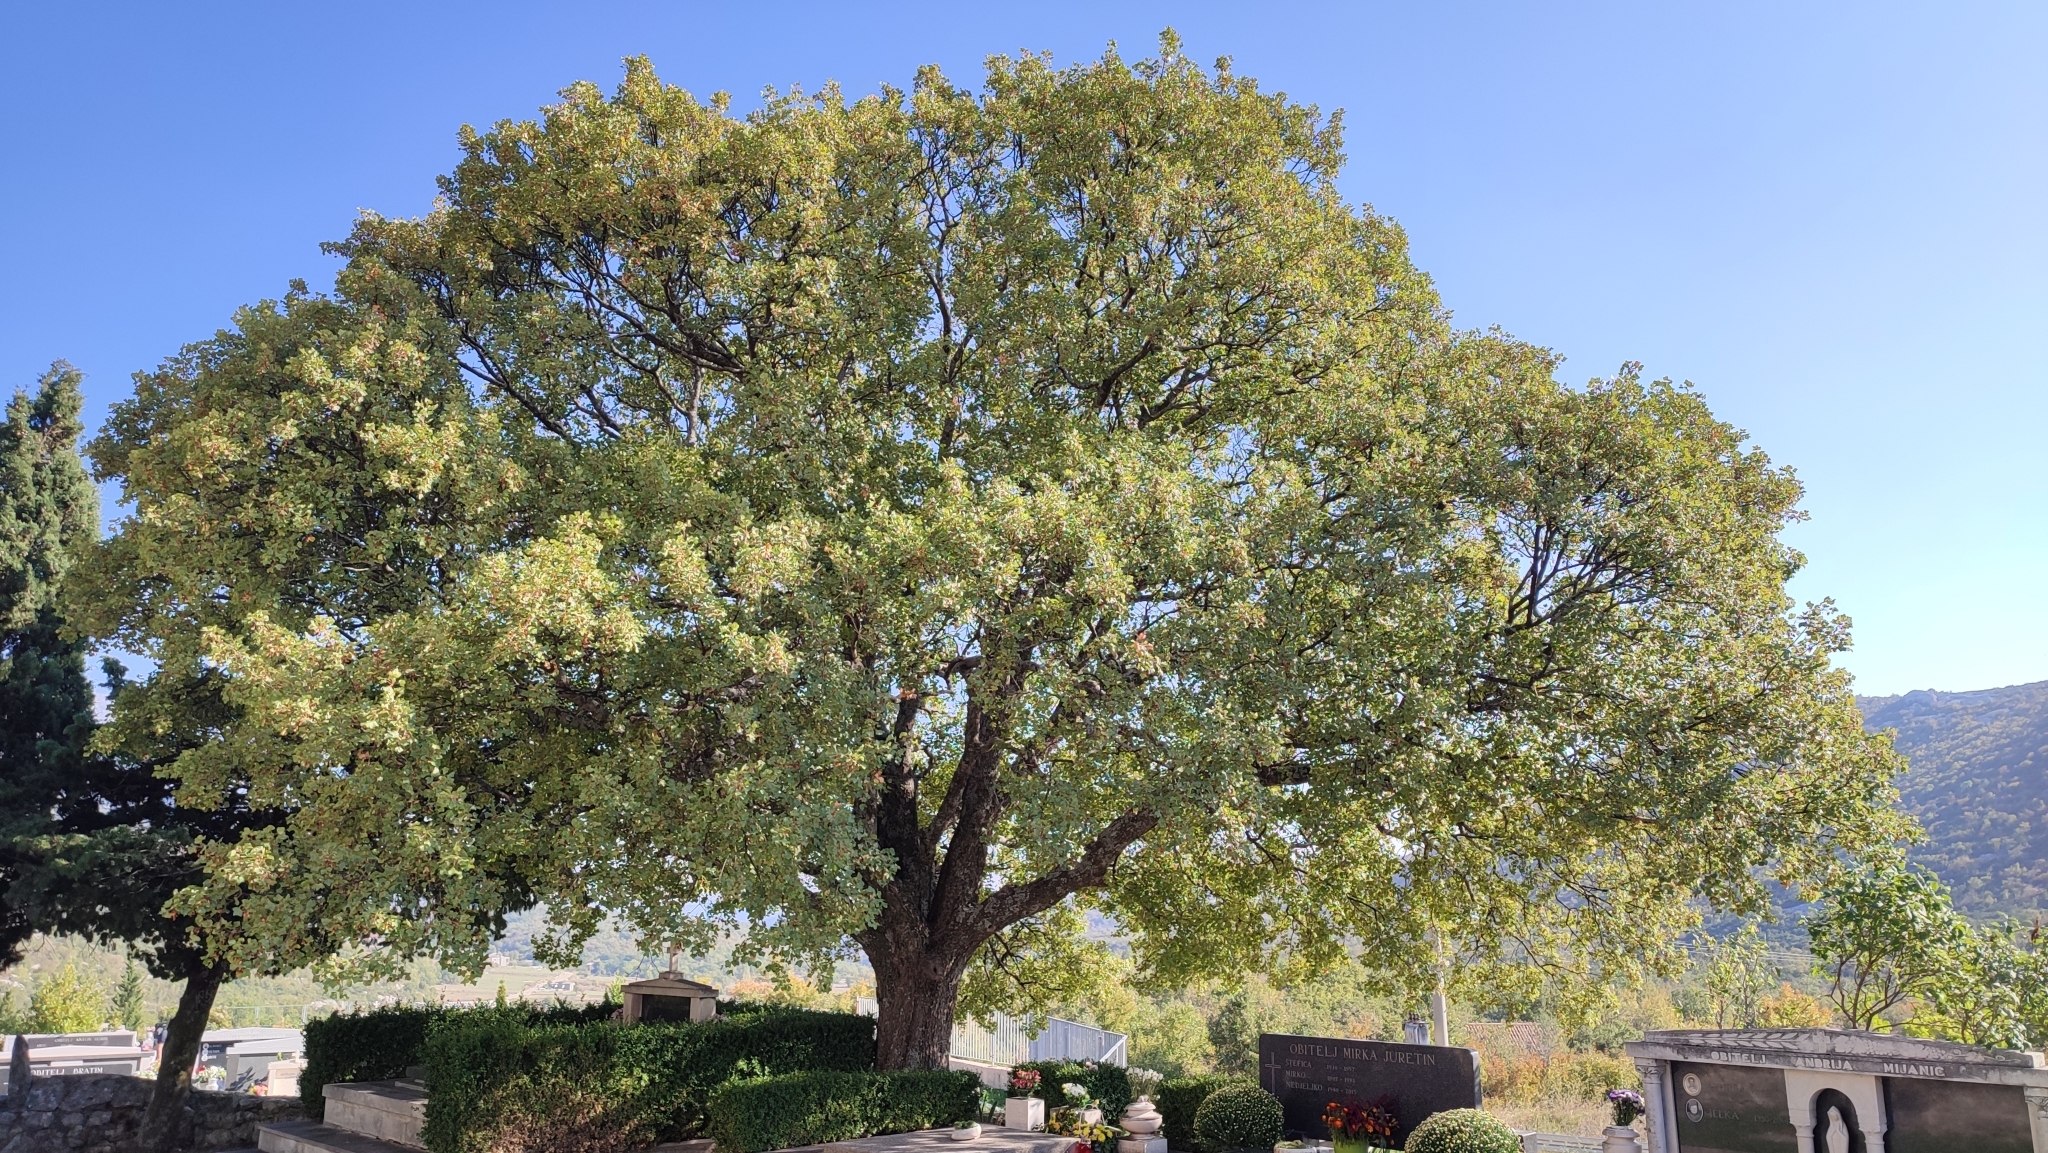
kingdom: Plantae
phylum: Tracheophyta
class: Magnoliopsida
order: Sapindales
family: Sapindaceae
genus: Acer
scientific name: Acer monspessulanum
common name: Montpellier maple
